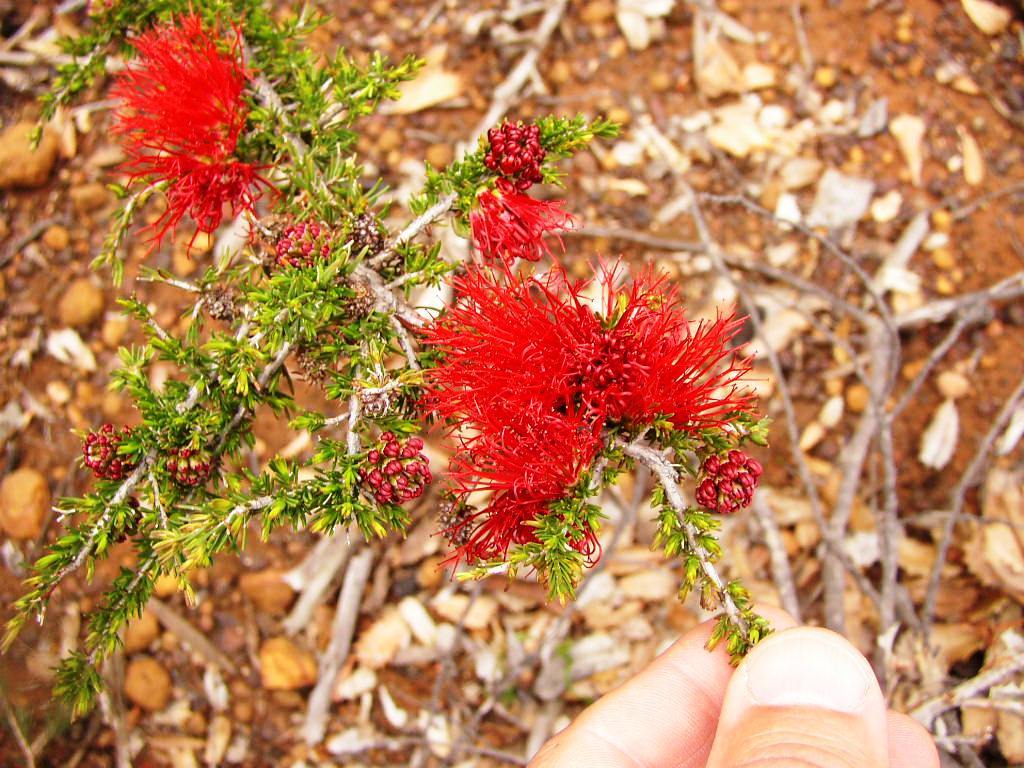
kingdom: Plantae
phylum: Tracheophyta
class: Magnoliopsida
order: Myrtales
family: Myrtaceae
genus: Melaleuca
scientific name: Melaleuca cyrtodonta
